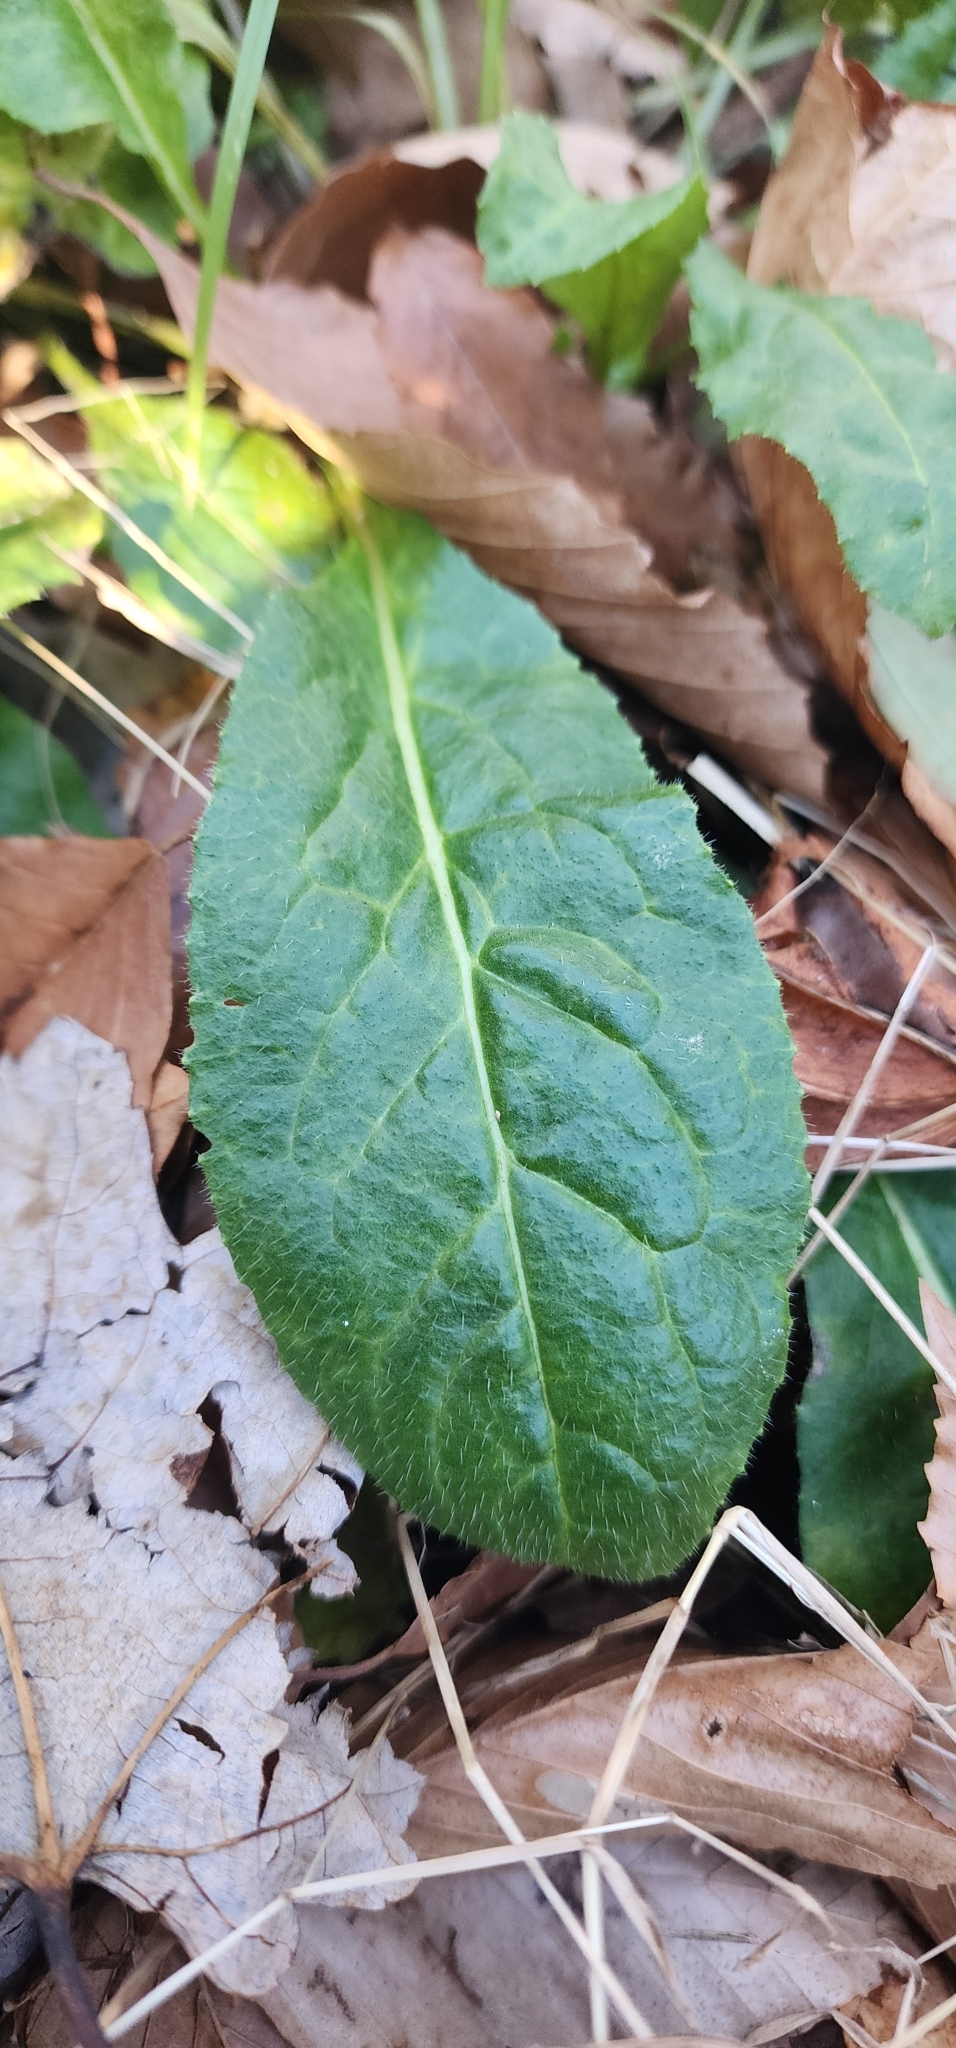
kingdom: Plantae
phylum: Tracheophyta
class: Magnoliopsida
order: Brassicales
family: Brassicaceae
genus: Hesperis
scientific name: Hesperis matronalis
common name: Dame's-violet
